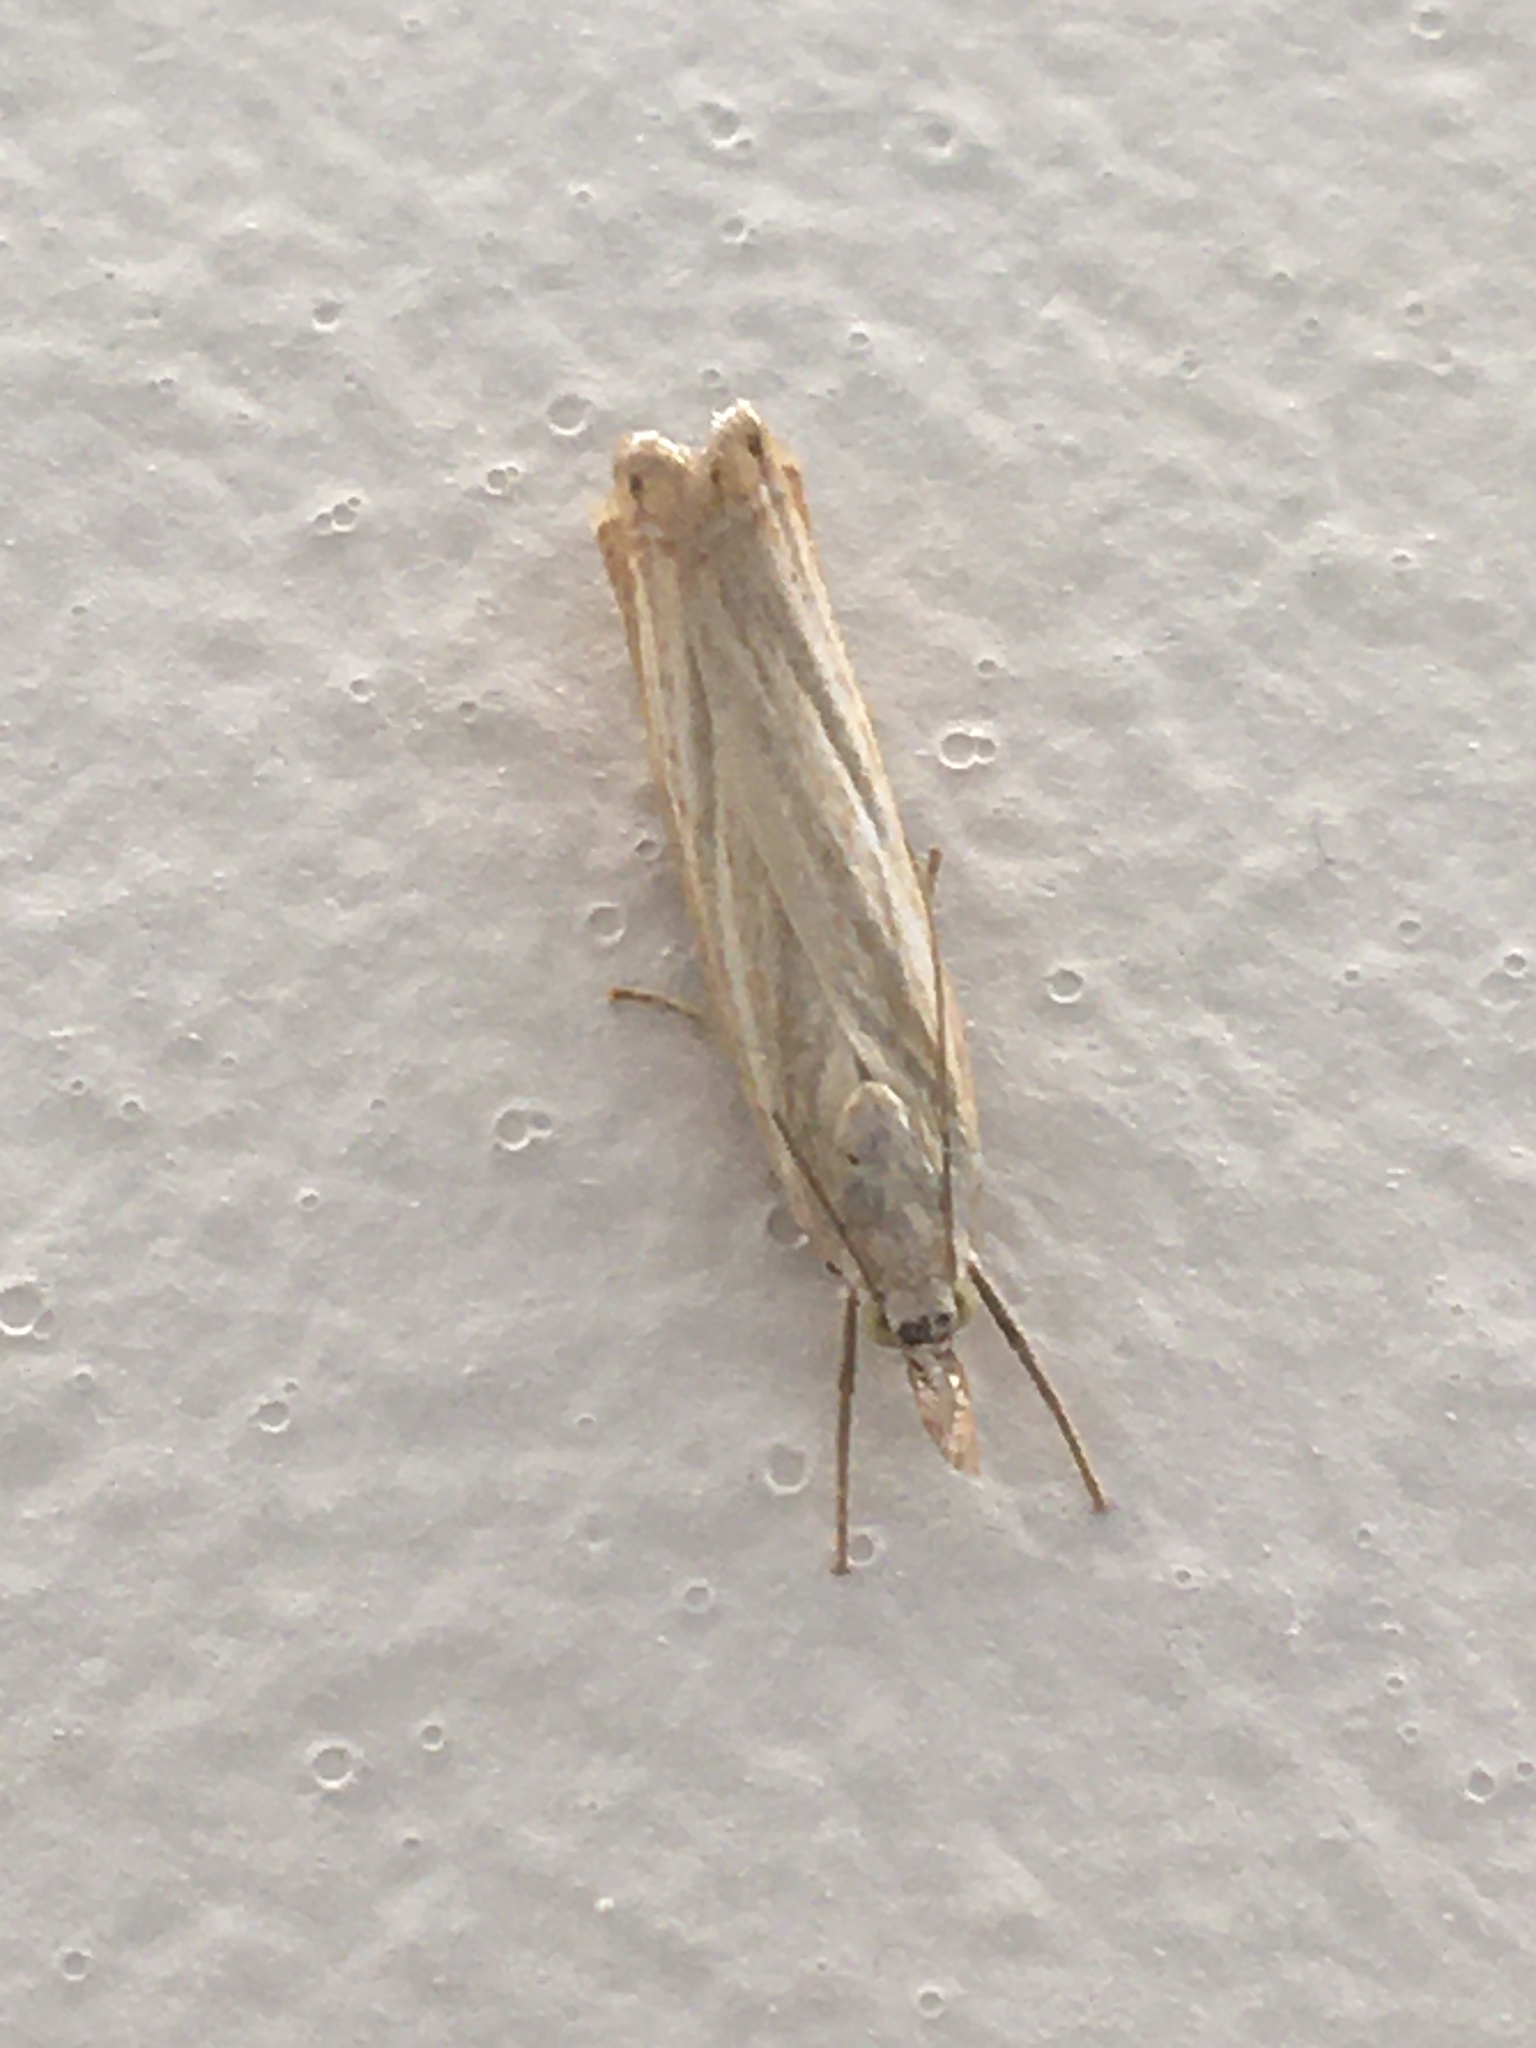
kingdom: Animalia
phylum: Arthropoda
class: Insecta
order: Lepidoptera
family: Crambidae
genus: Chrysoteuchia
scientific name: Chrysoteuchia culmella
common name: Garden grass-veneer
